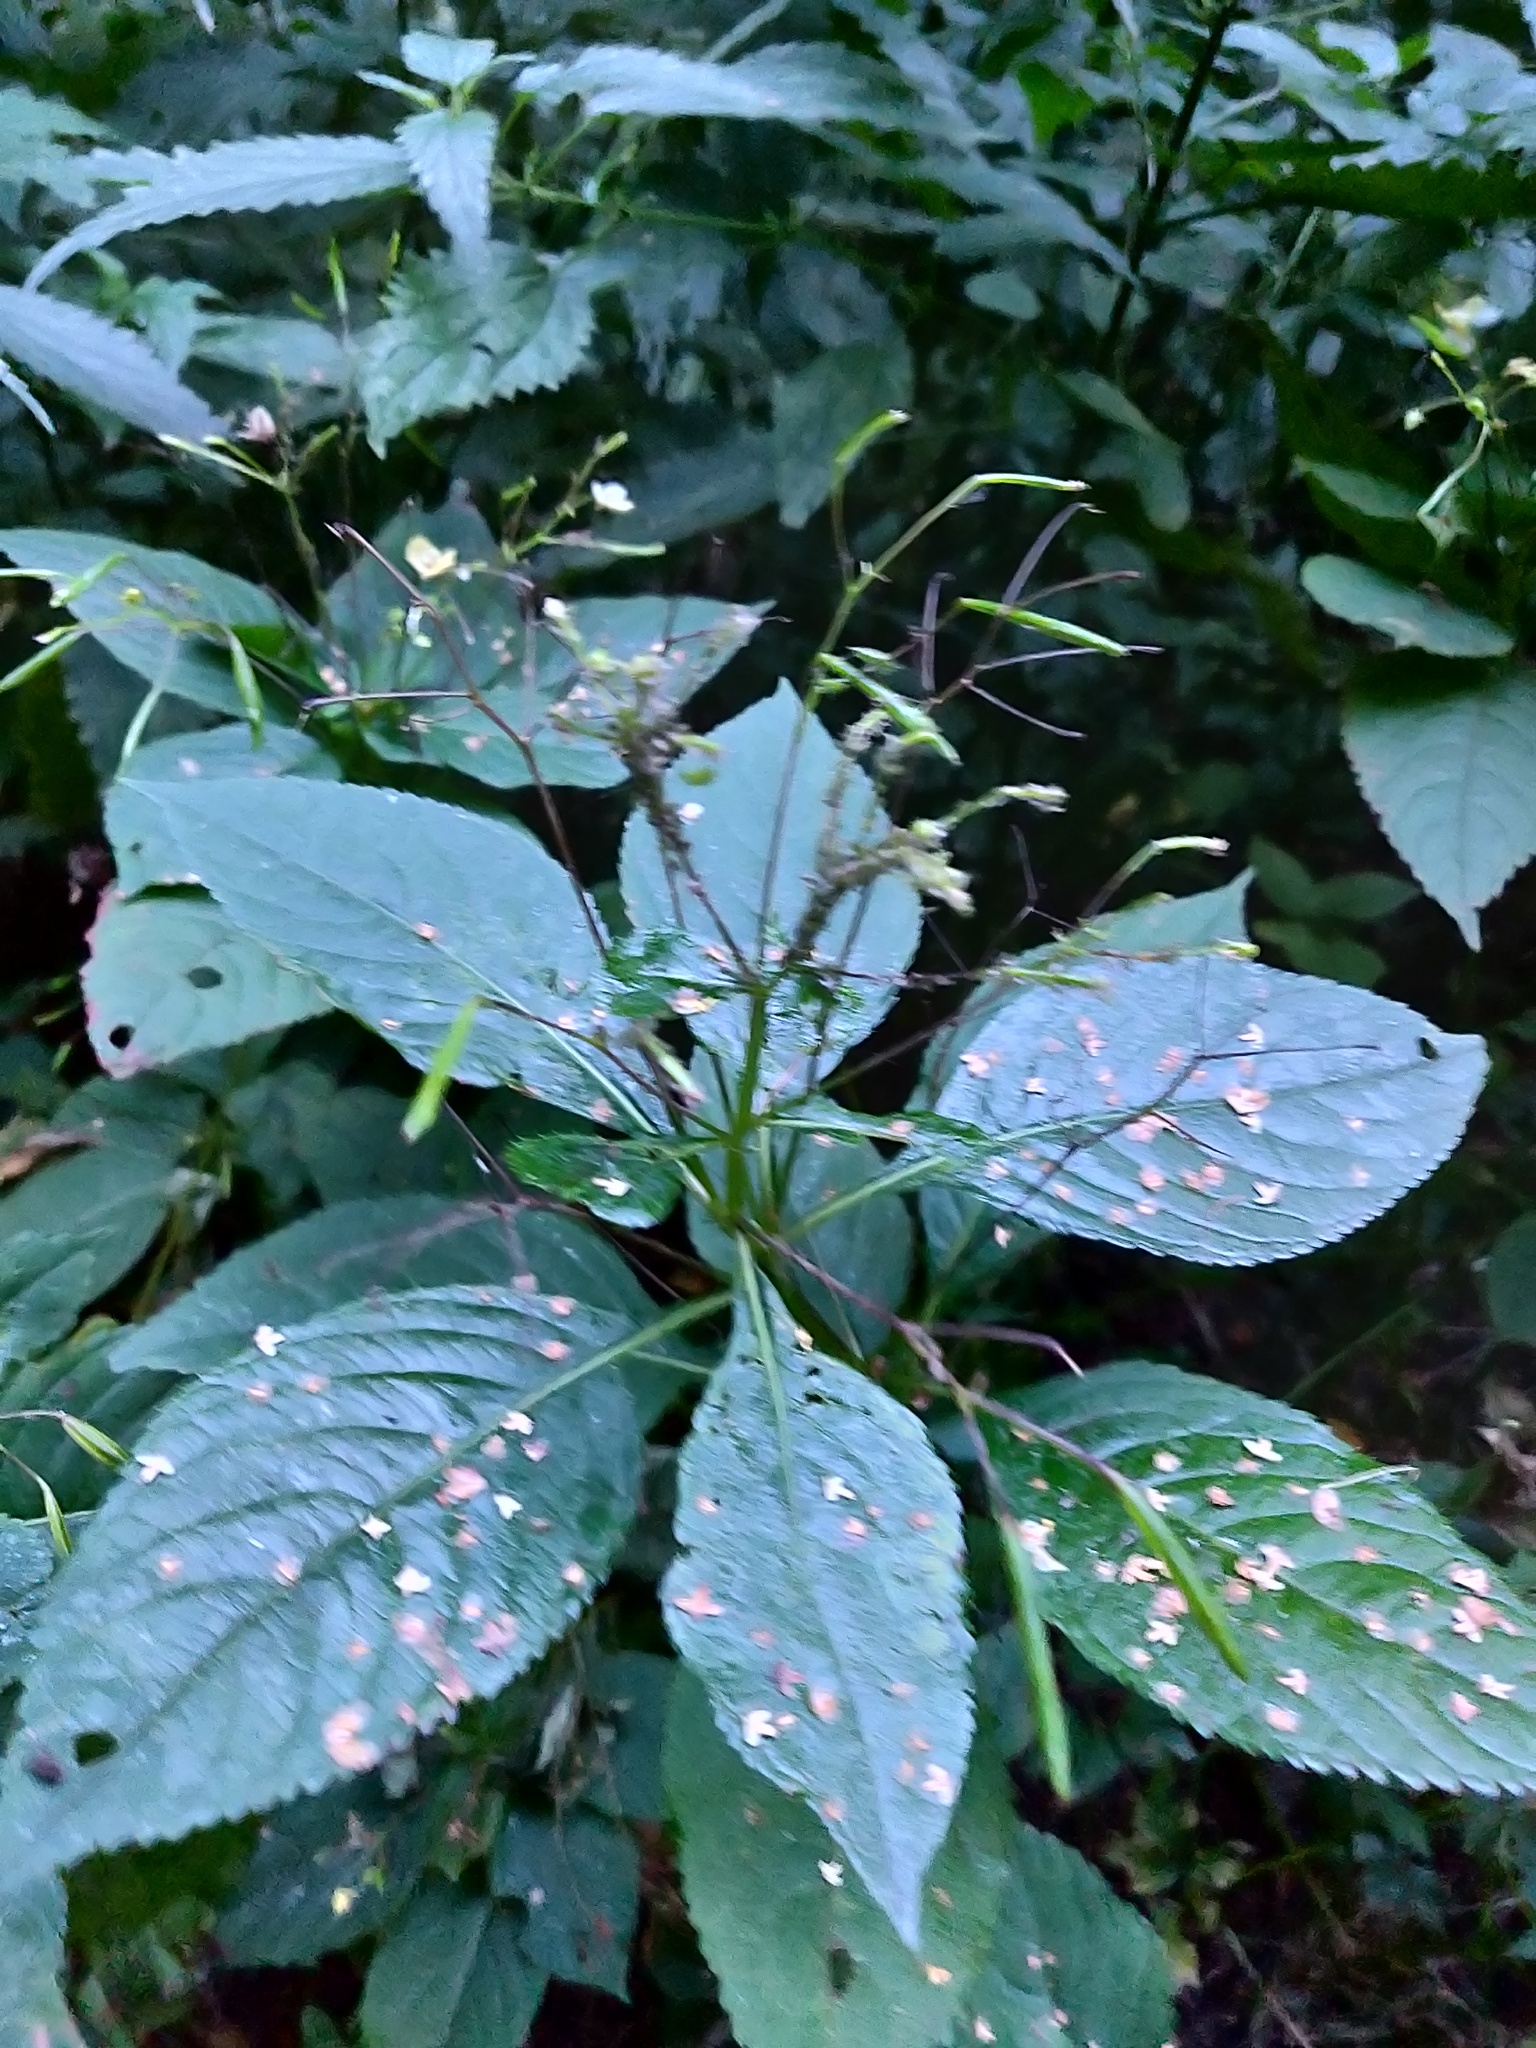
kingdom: Plantae
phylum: Tracheophyta
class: Magnoliopsida
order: Ericales
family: Balsaminaceae
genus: Impatiens
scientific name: Impatiens parviflora
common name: Small balsam
